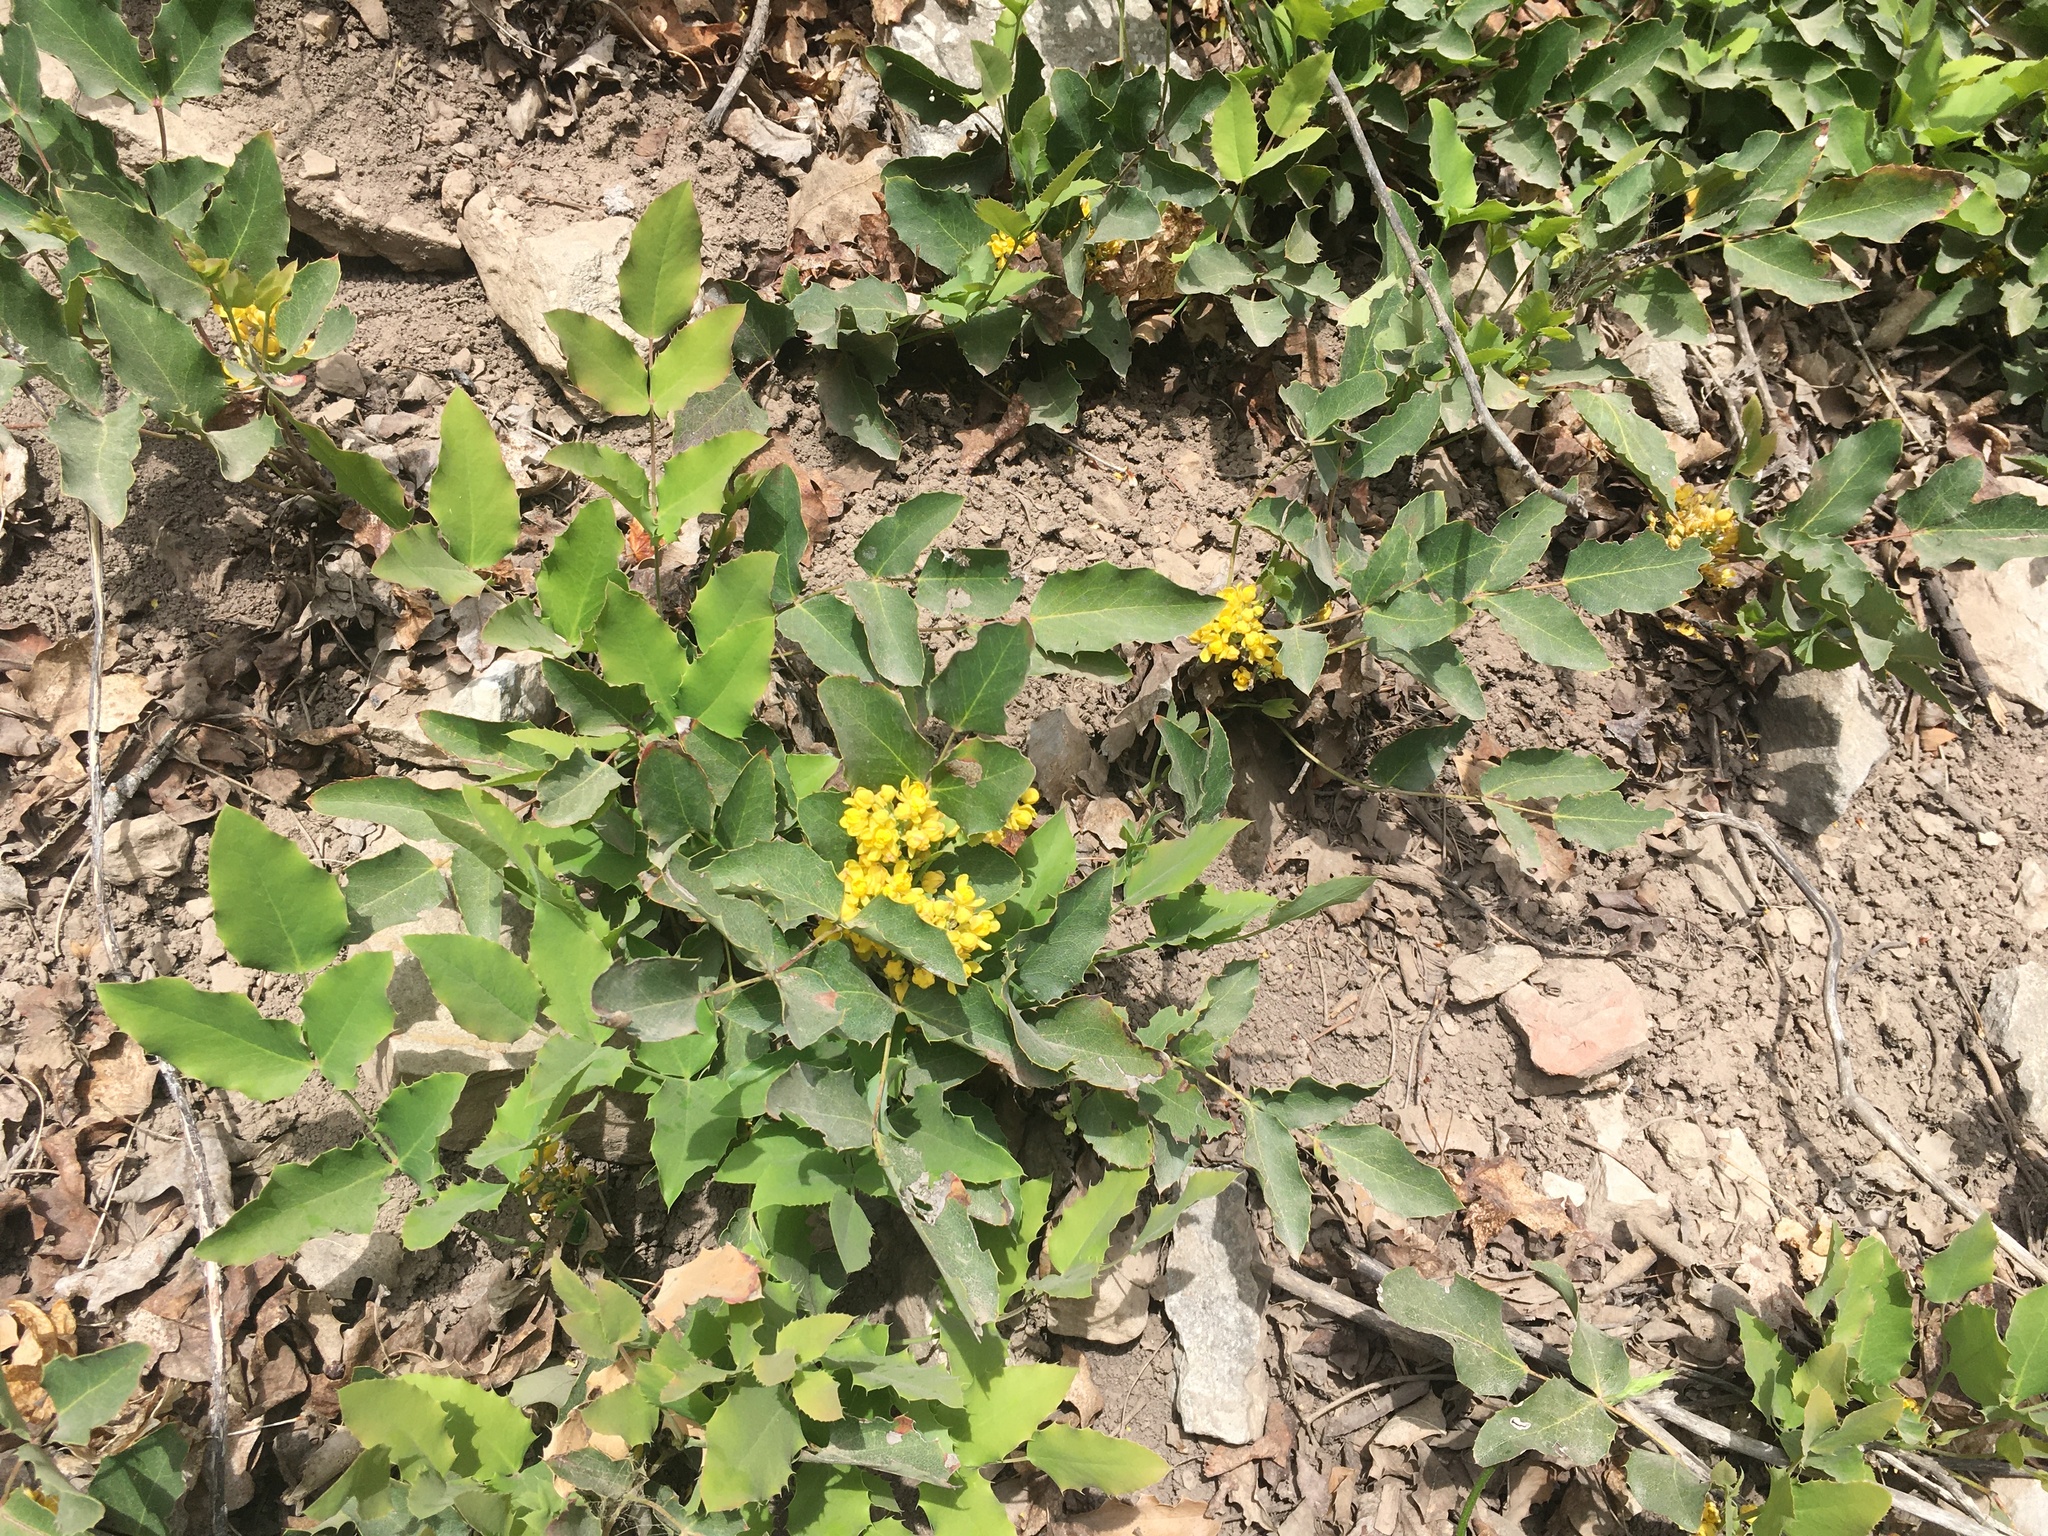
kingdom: Plantae
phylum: Tracheophyta
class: Magnoliopsida
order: Ranunculales
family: Berberidaceae
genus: Mahonia
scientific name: Mahonia repens
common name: Creeping oregon-grape
